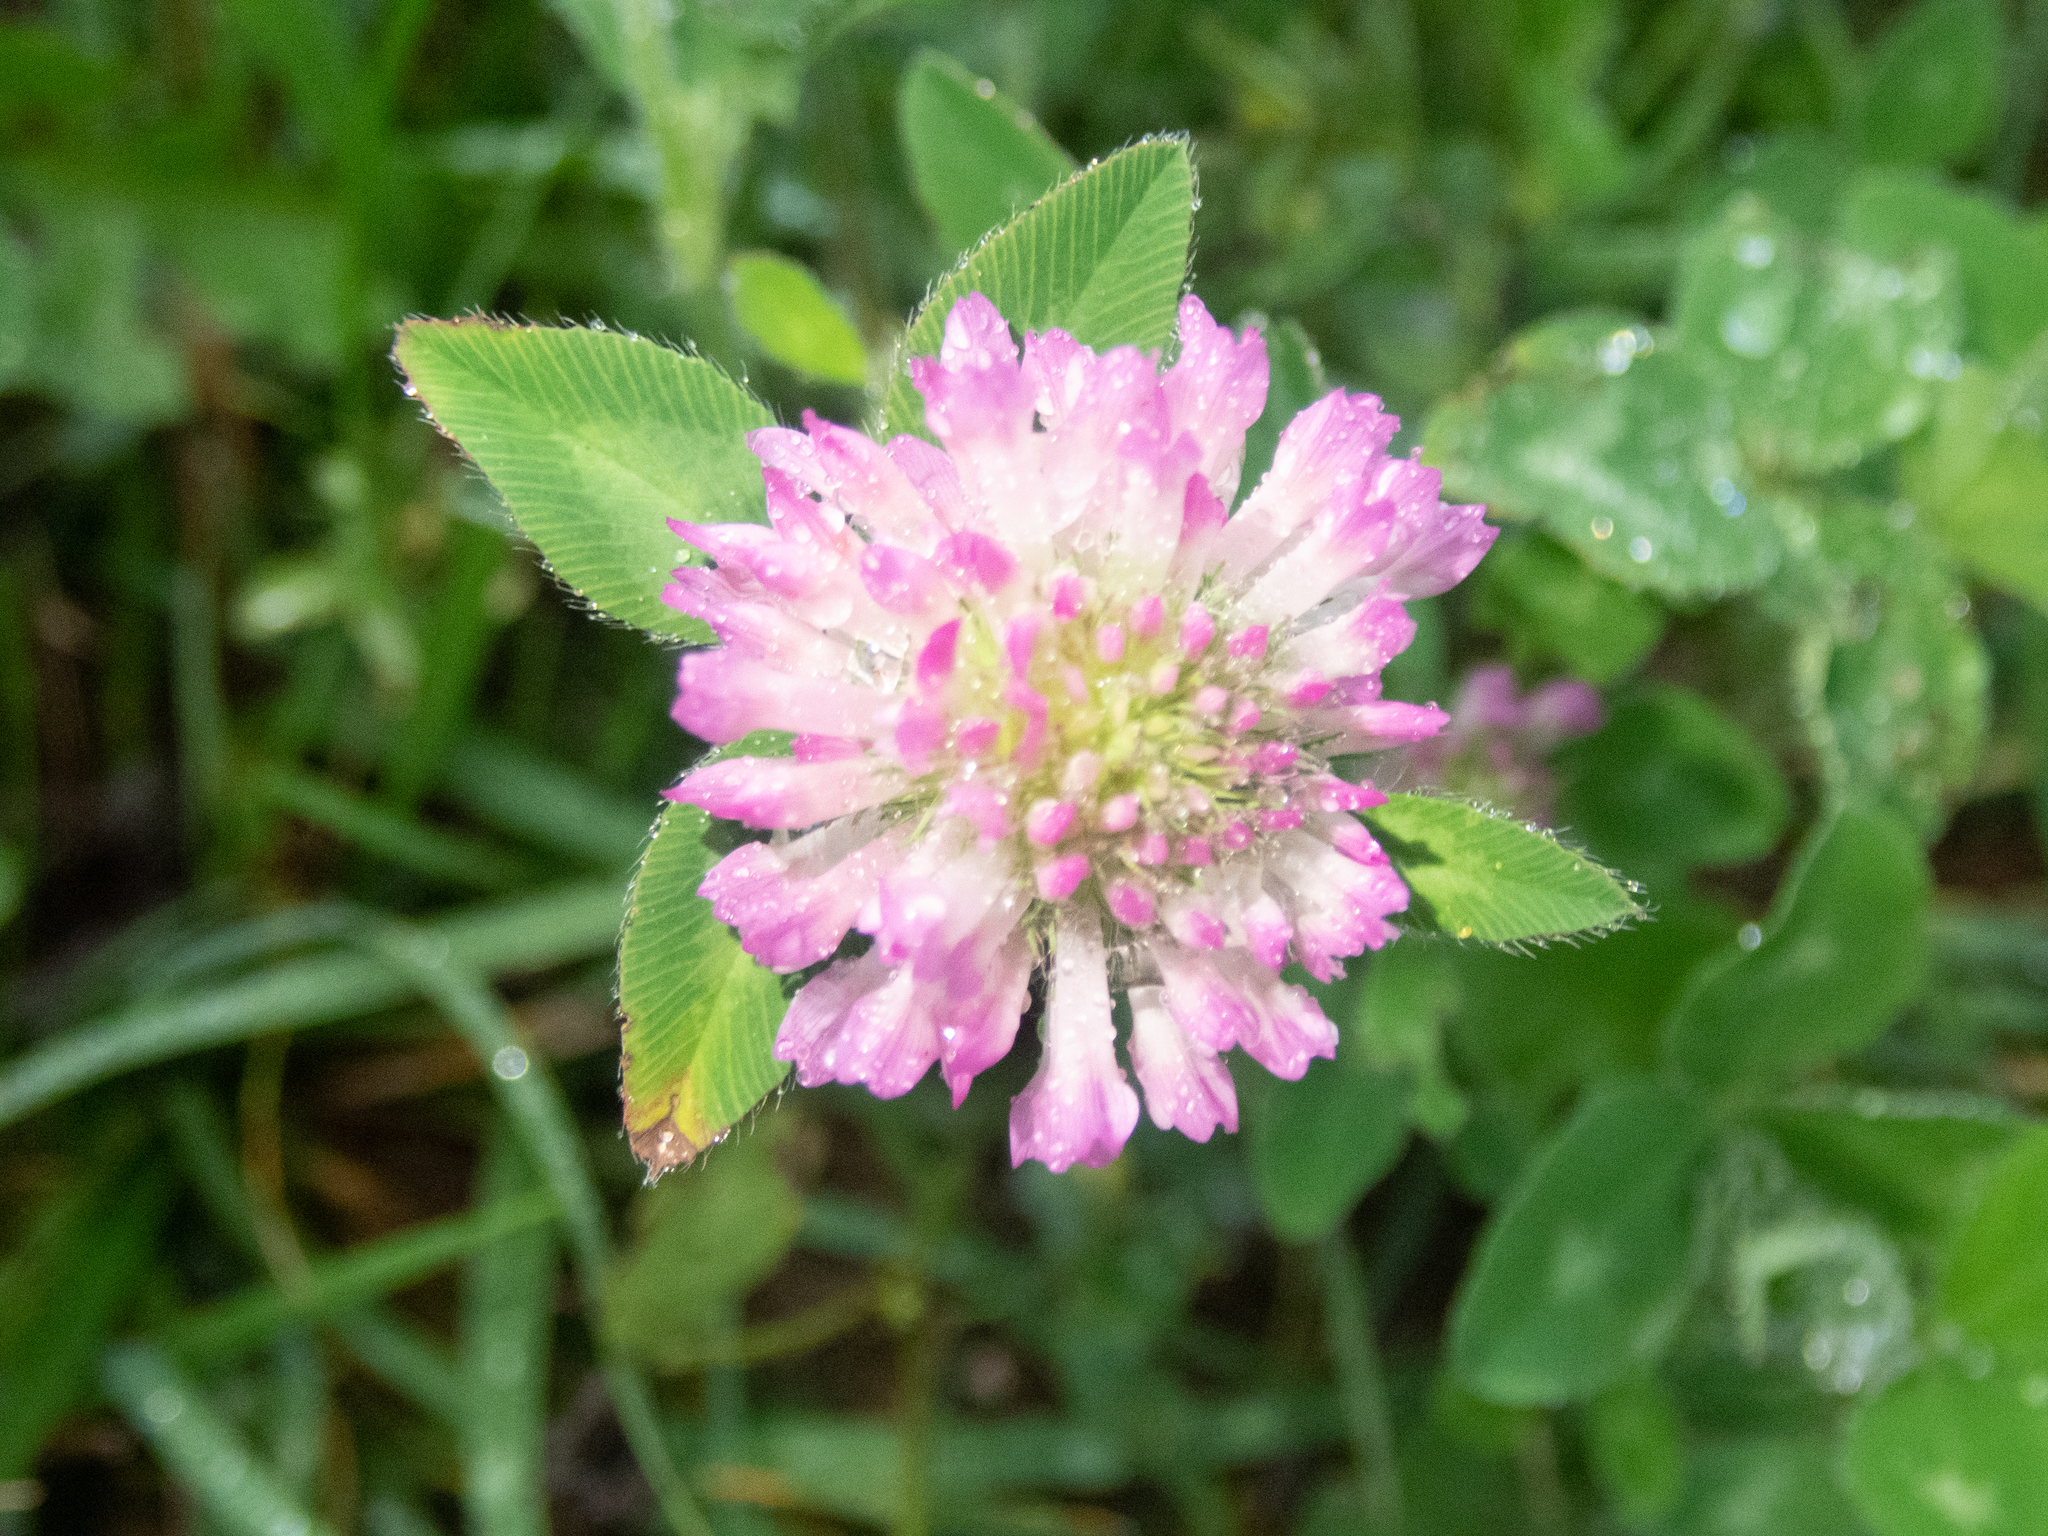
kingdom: Plantae
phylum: Tracheophyta
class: Magnoliopsida
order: Fabales
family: Fabaceae
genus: Trifolium
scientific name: Trifolium pratense
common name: Red clover
